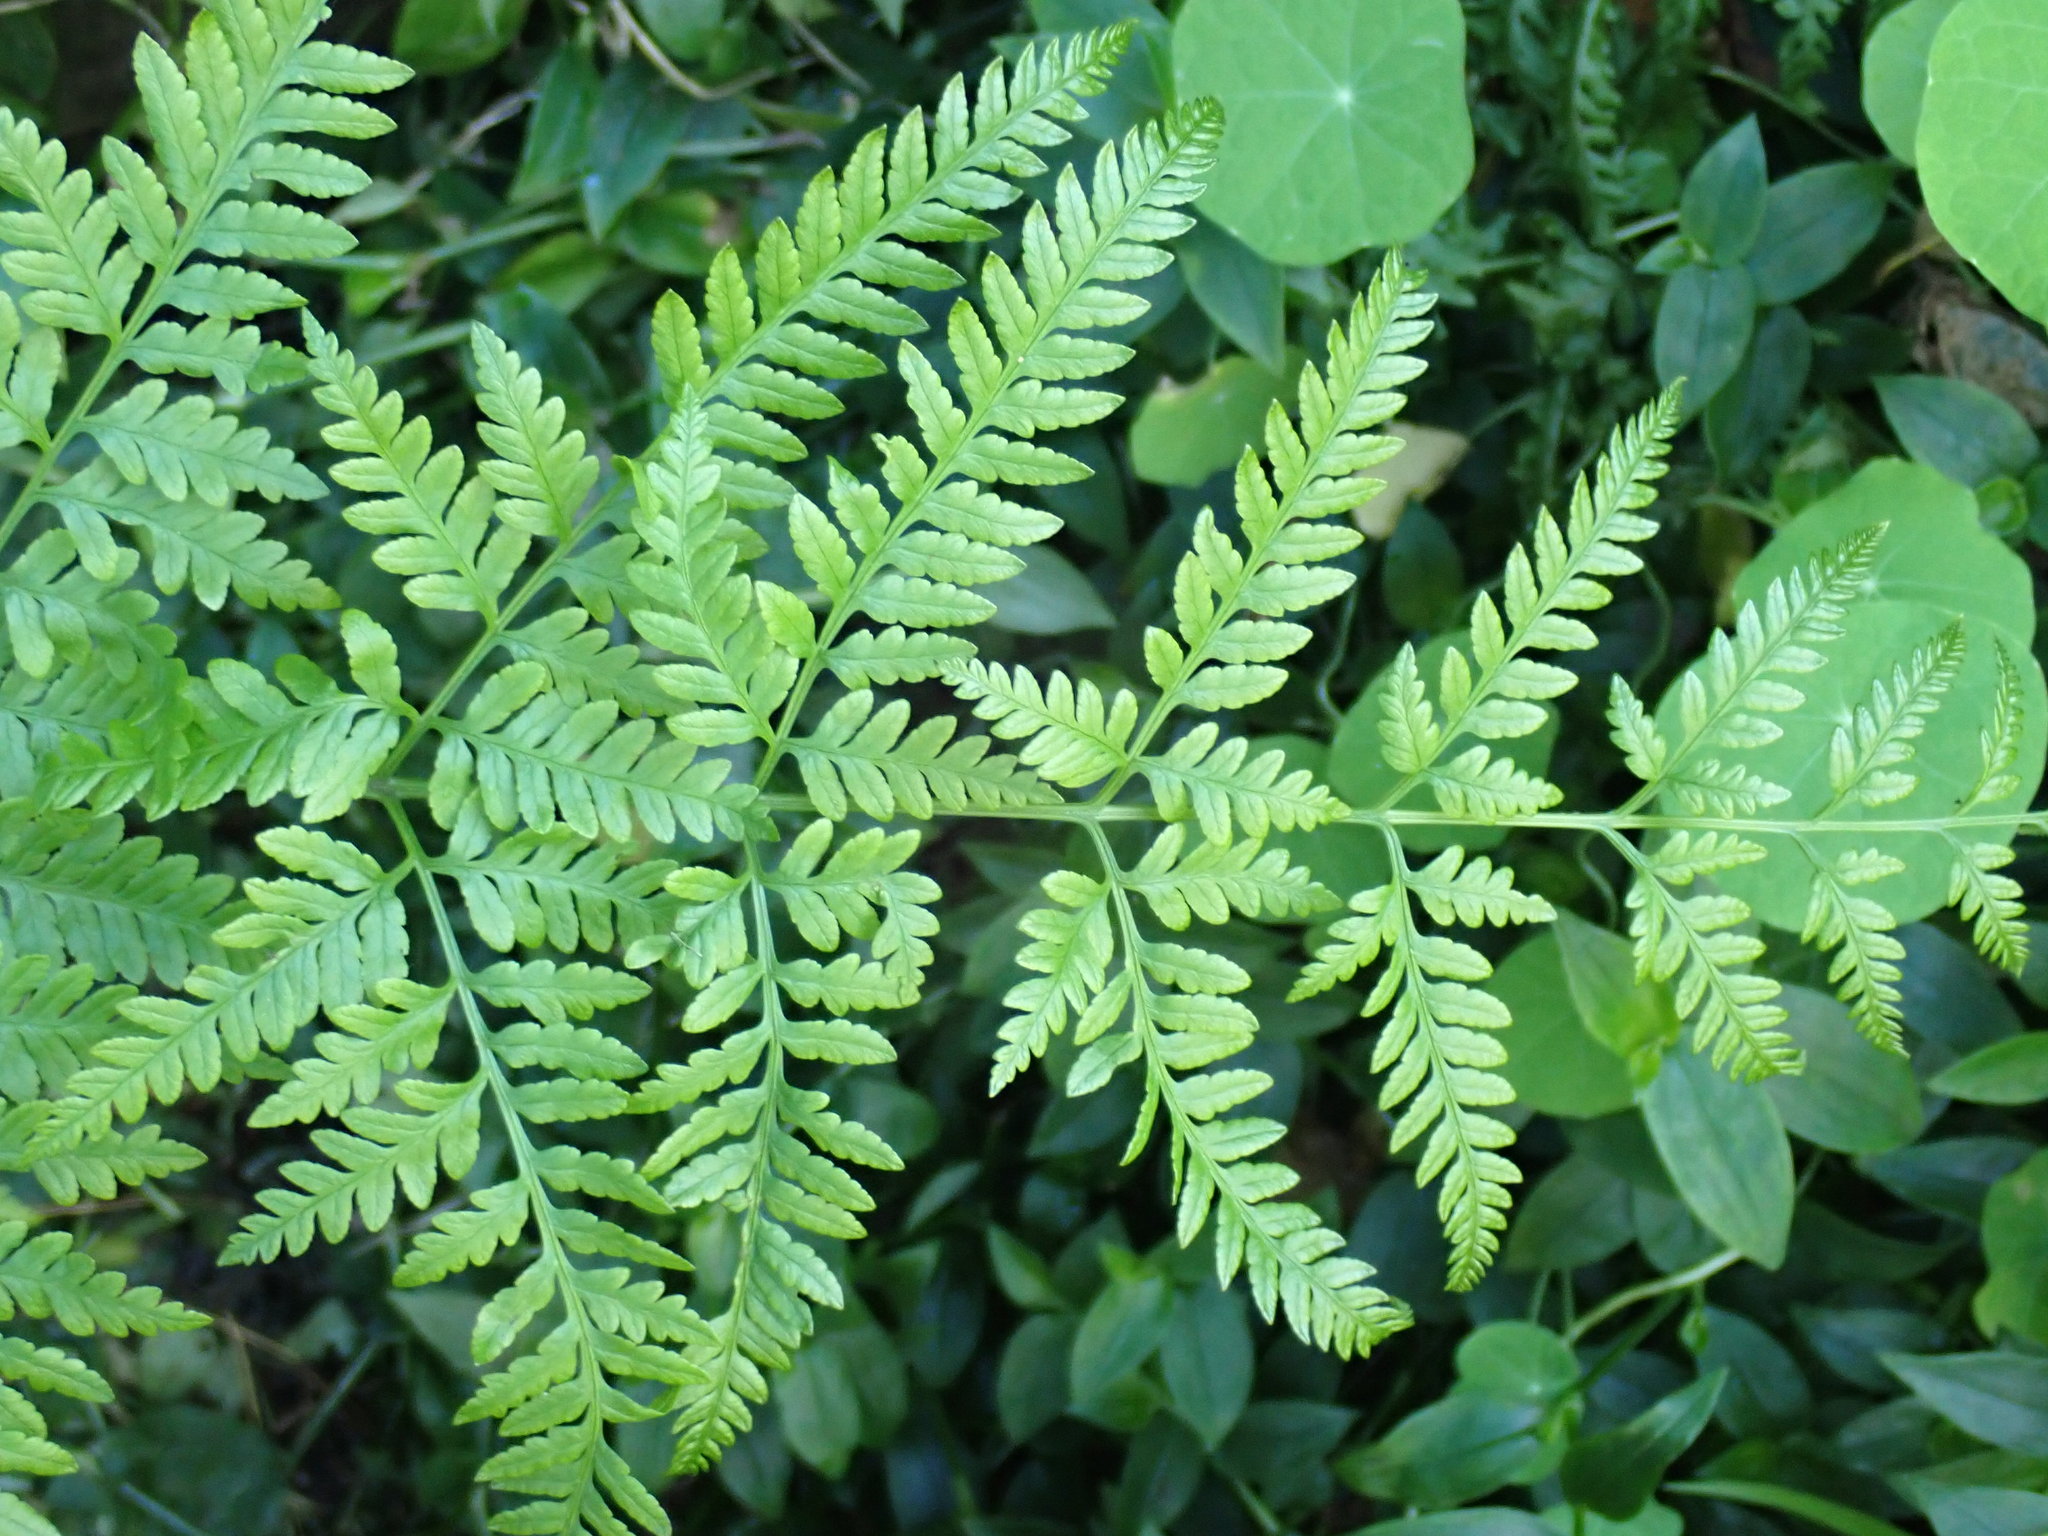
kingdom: Plantae
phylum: Tracheophyta
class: Polypodiopsida
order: Polypodiales
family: Pteridaceae
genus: Pteris
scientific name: Pteris tremula
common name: Australian brake
